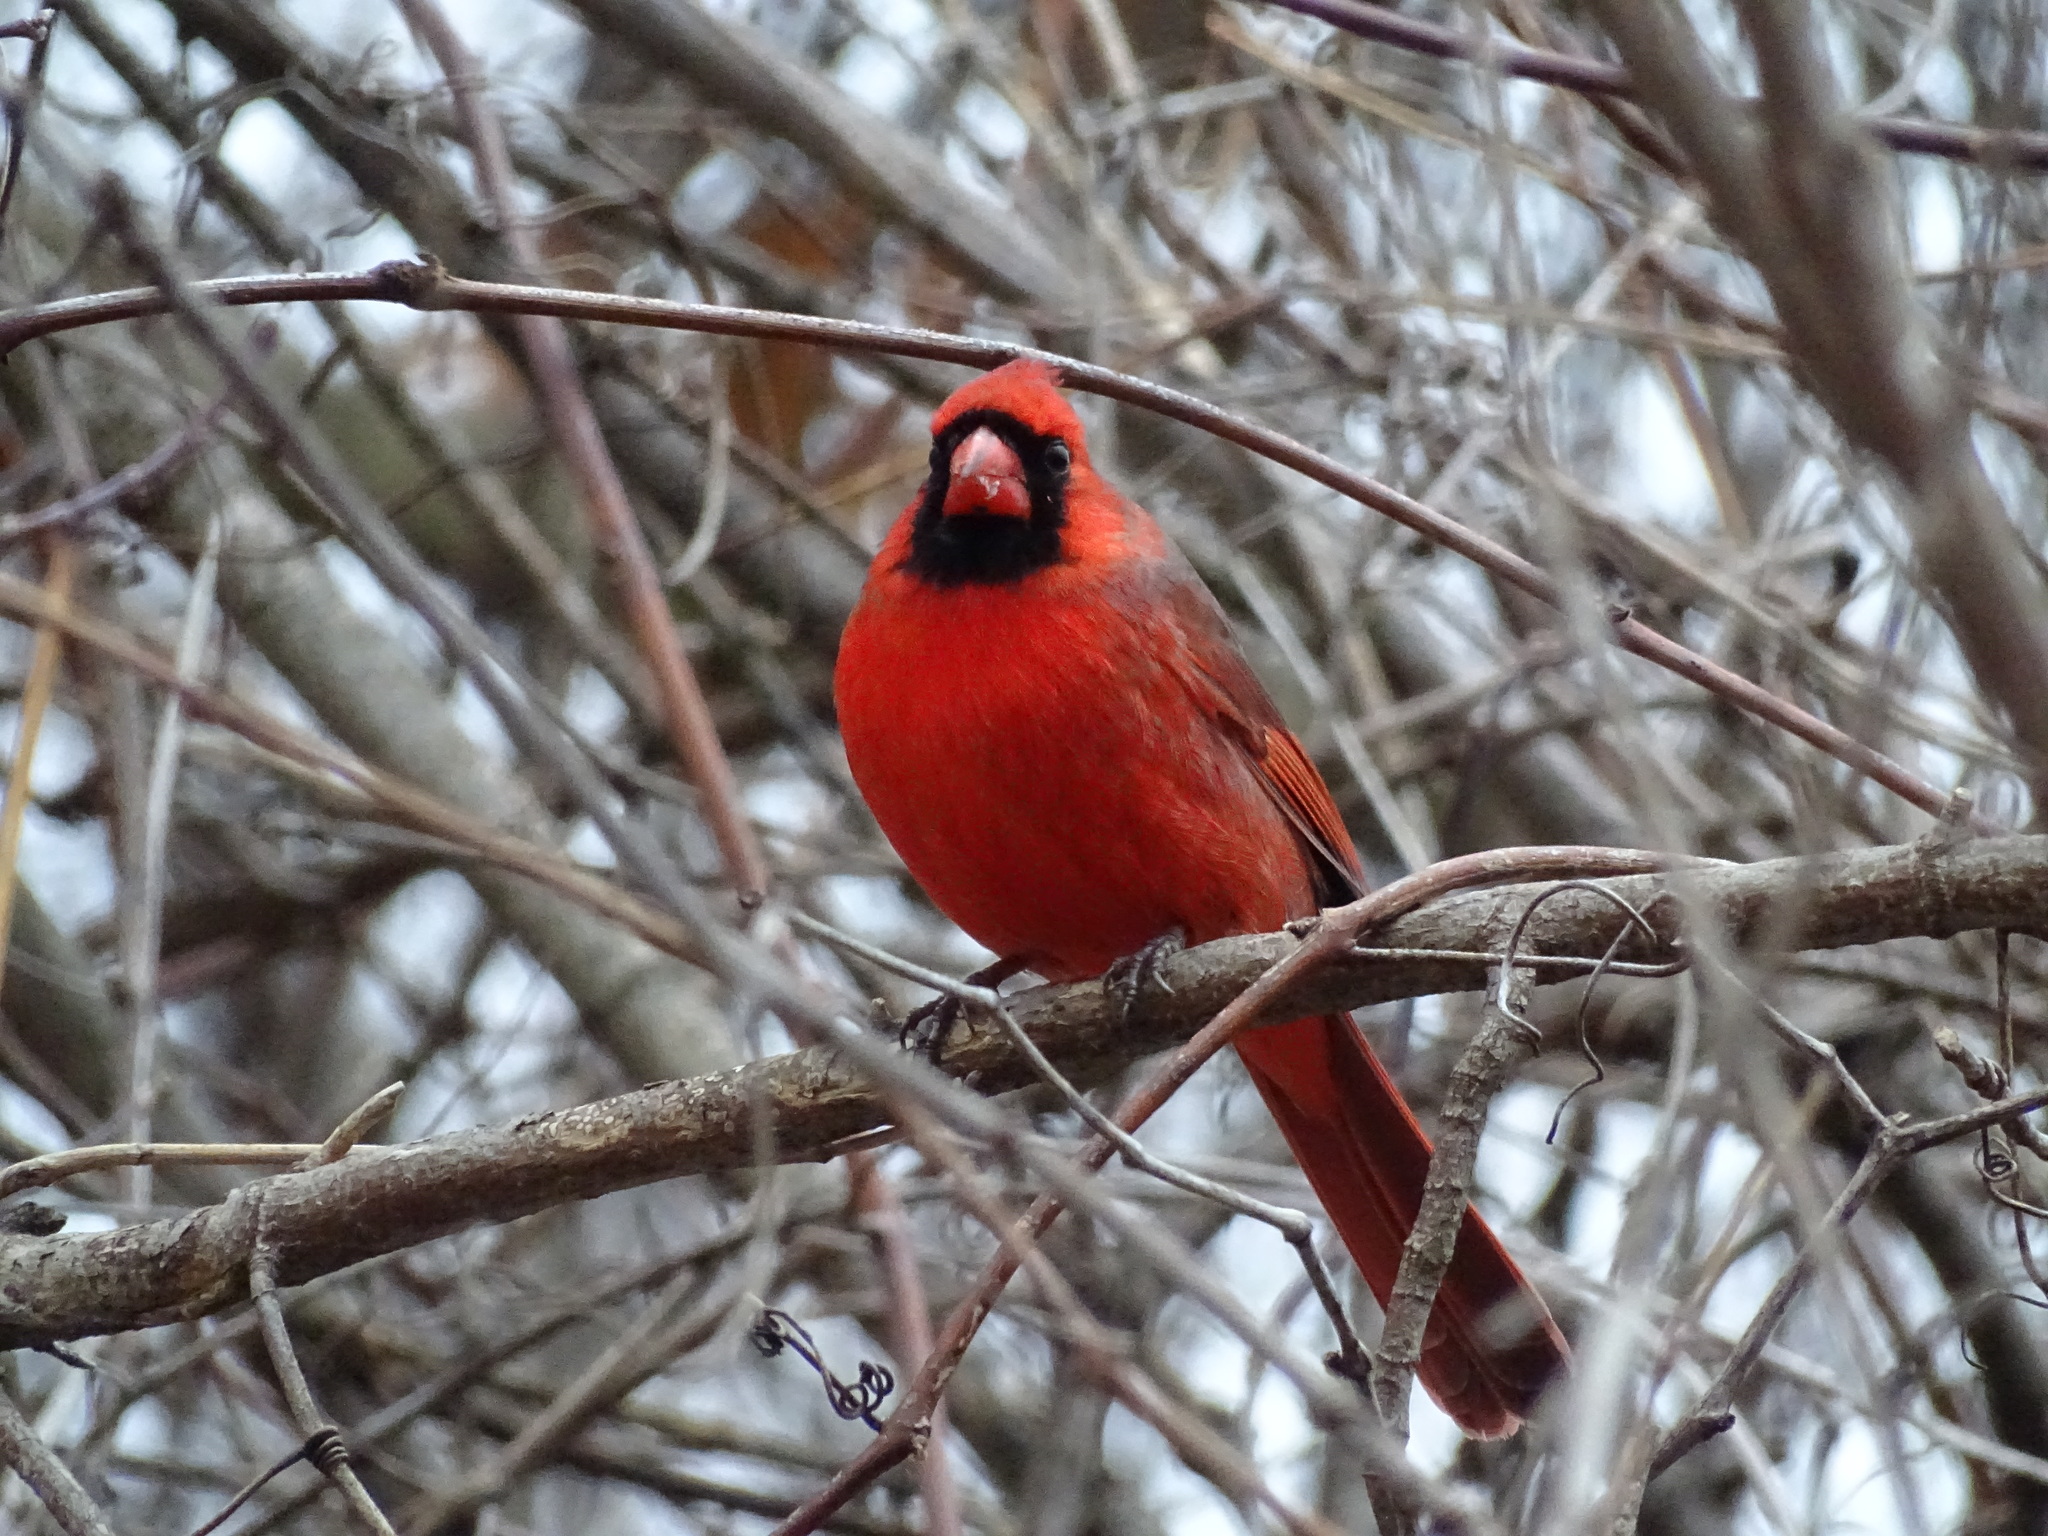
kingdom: Animalia
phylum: Chordata
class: Aves
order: Passeriformes
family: Cardinalidae
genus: Cardinalis
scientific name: Cardinalis cardinalis
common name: Northern cardinal
